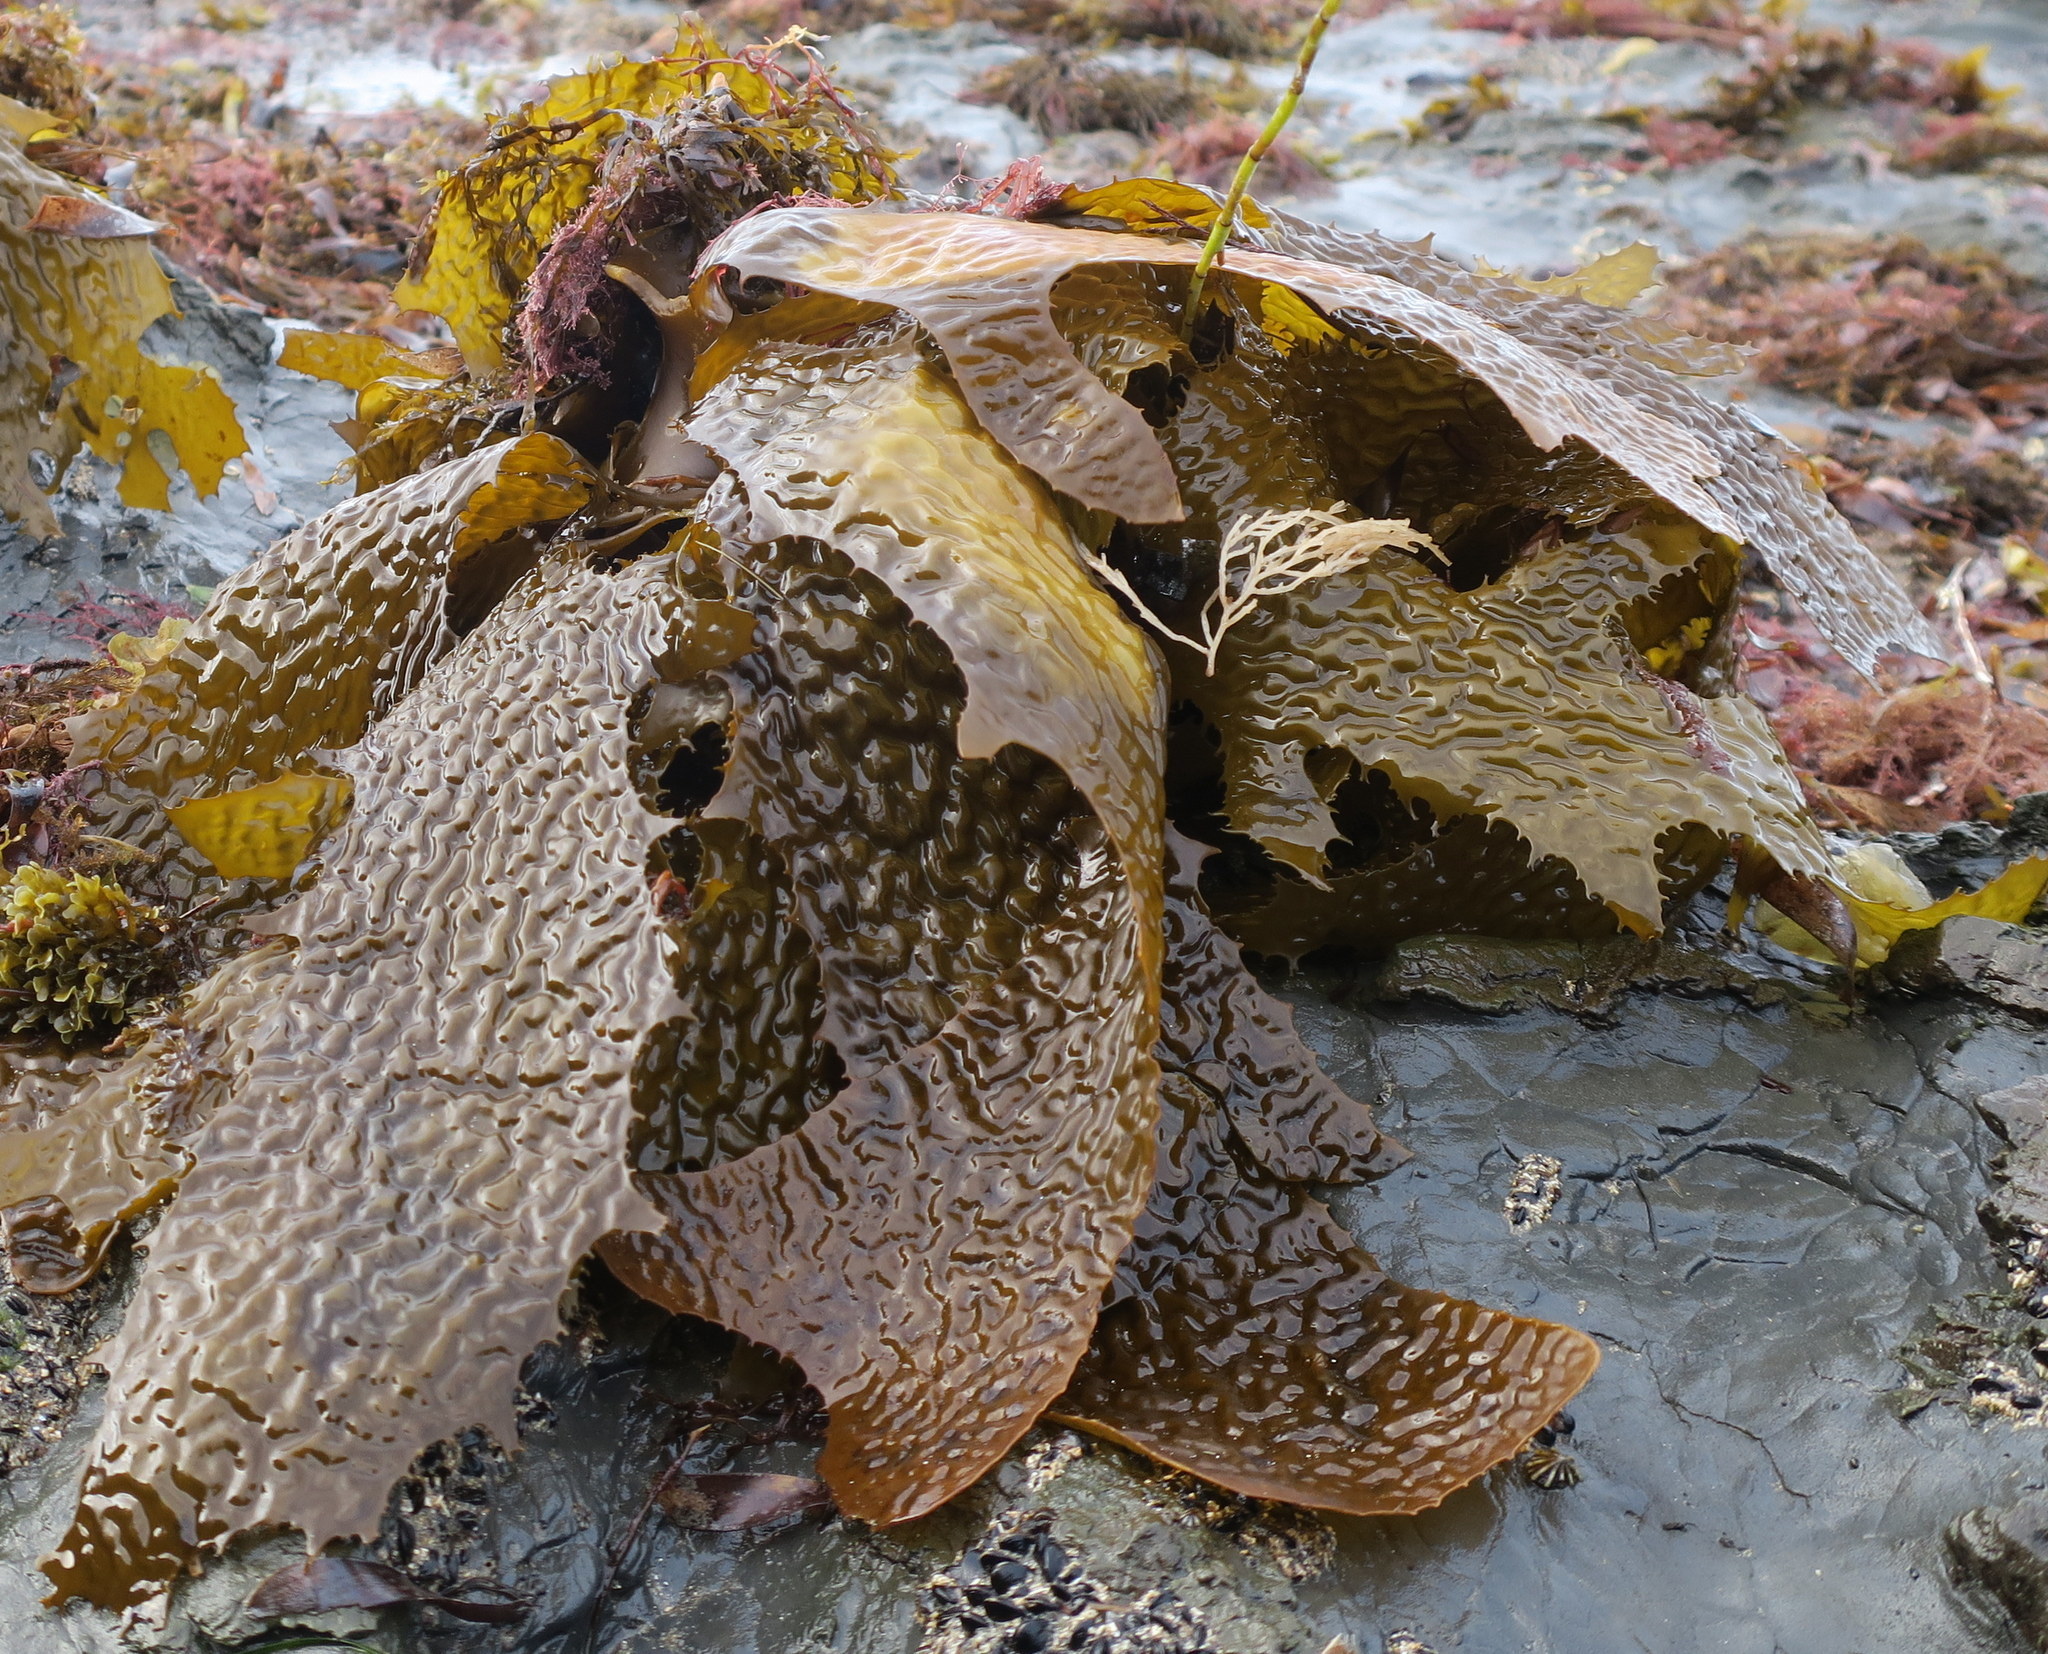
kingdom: Chromista
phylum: Ochrophyta
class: Phaeophyceae
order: Laminariales
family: Lessoniaceae
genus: Ecklonia
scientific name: Ecklonia radiata
